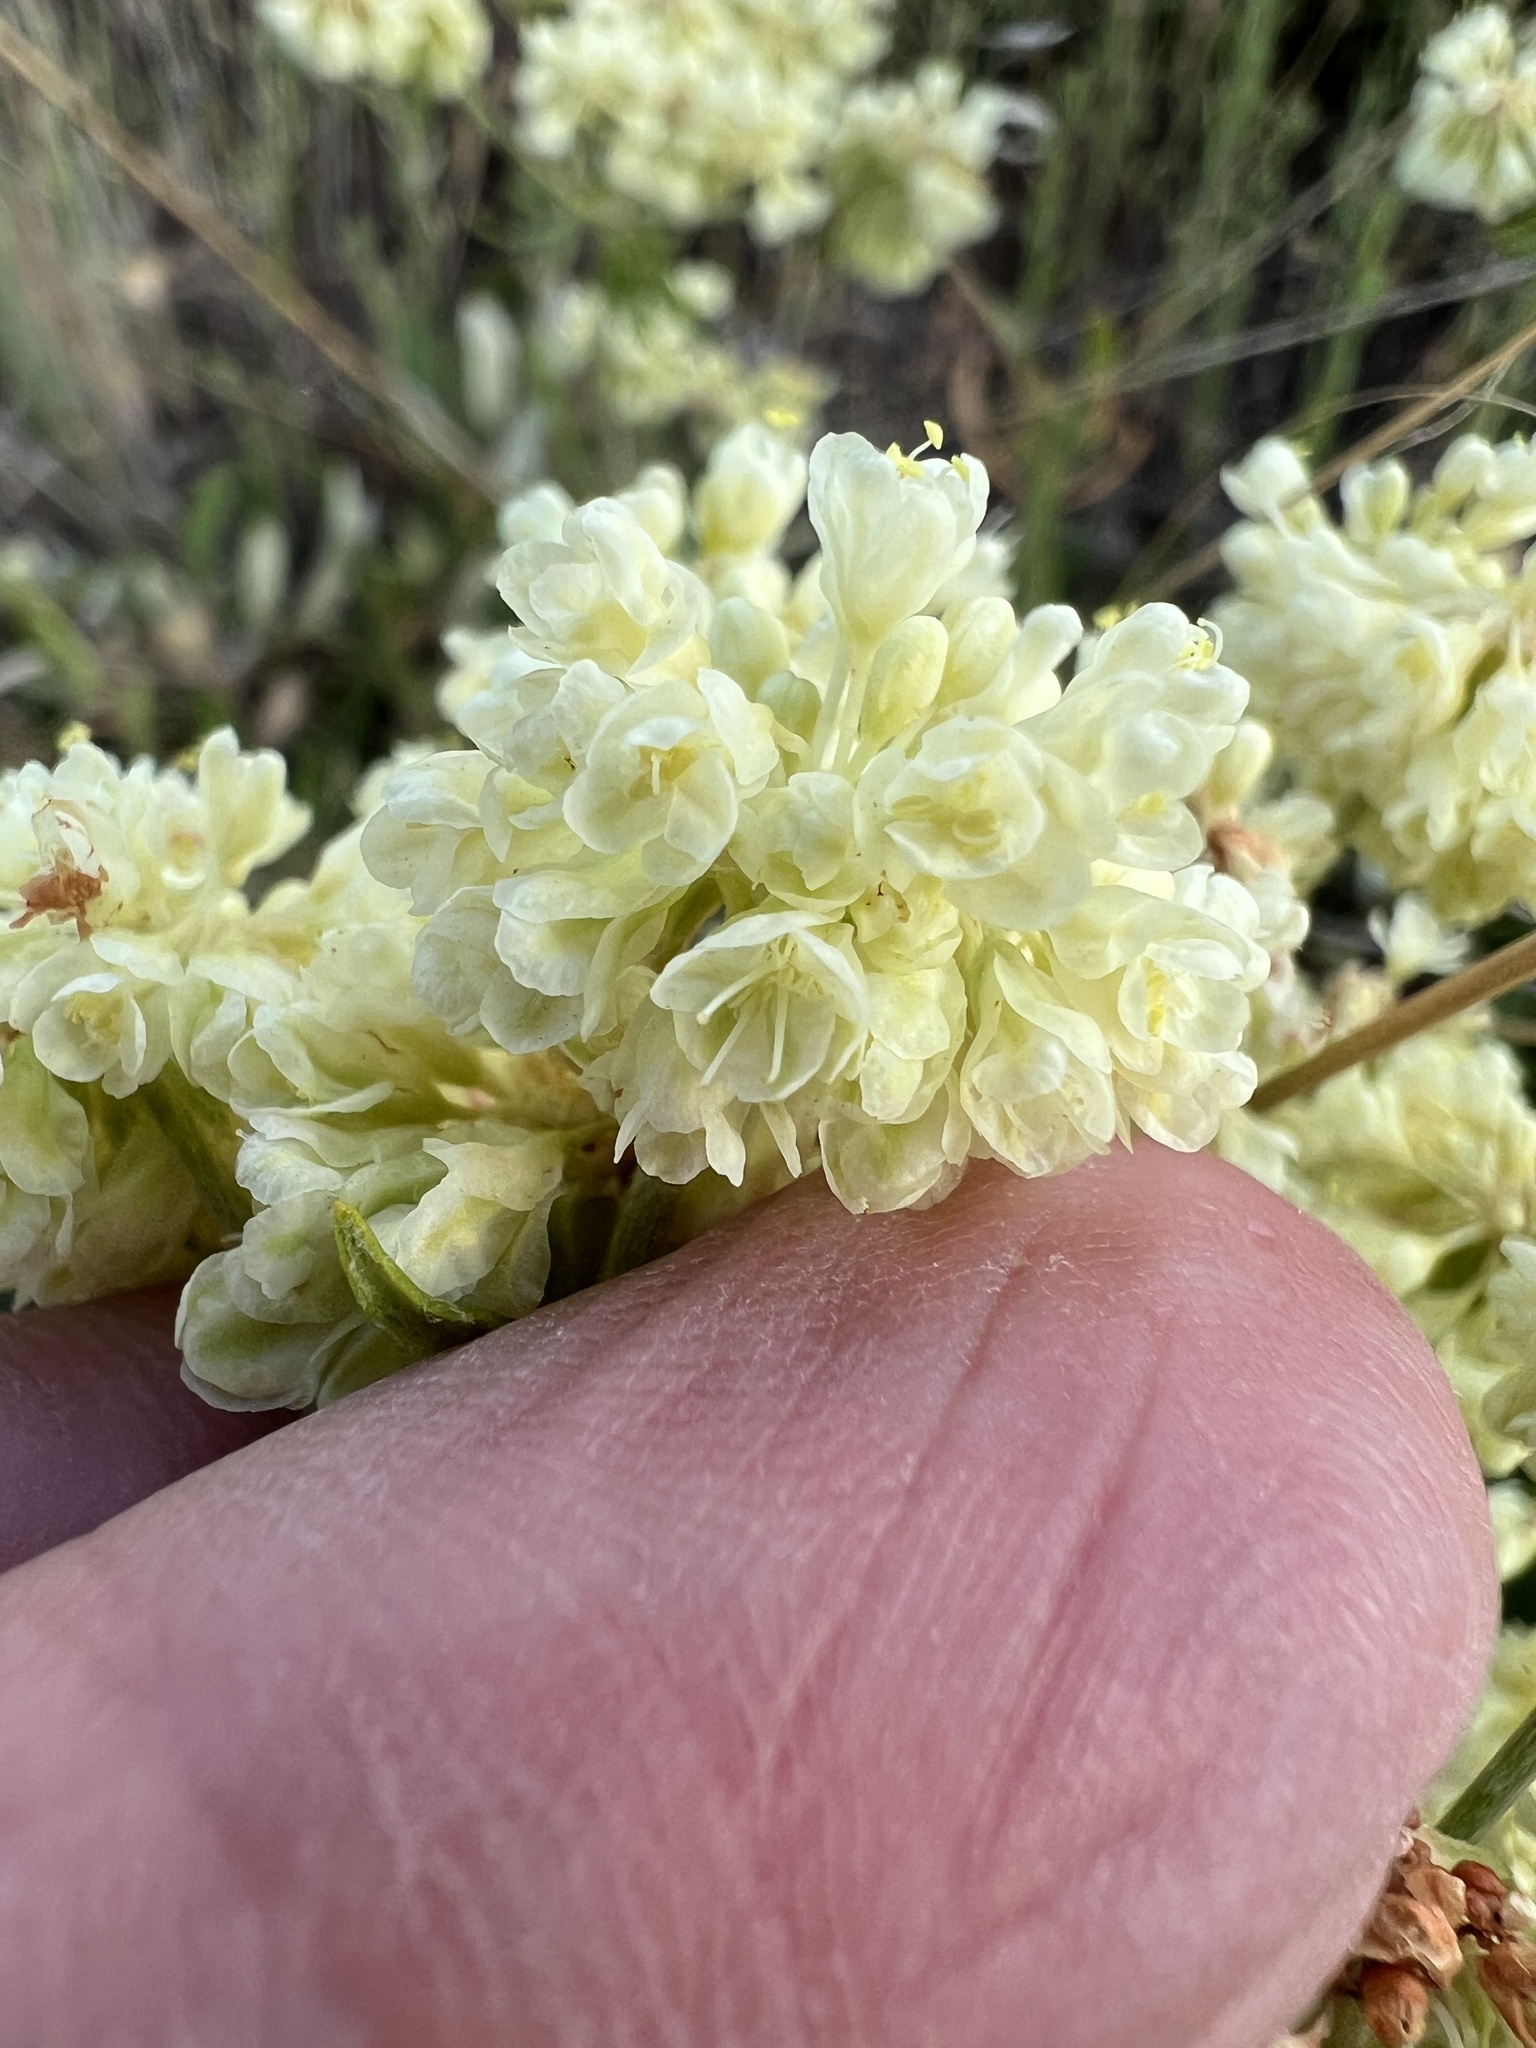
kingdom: Plantae
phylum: Tracheophyta
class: Magnoliopsida
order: Caryophyllales
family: Polygonaceae
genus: Eriogonum
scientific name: Eriogonum heracleoides
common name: Wyeth's buckwheat
